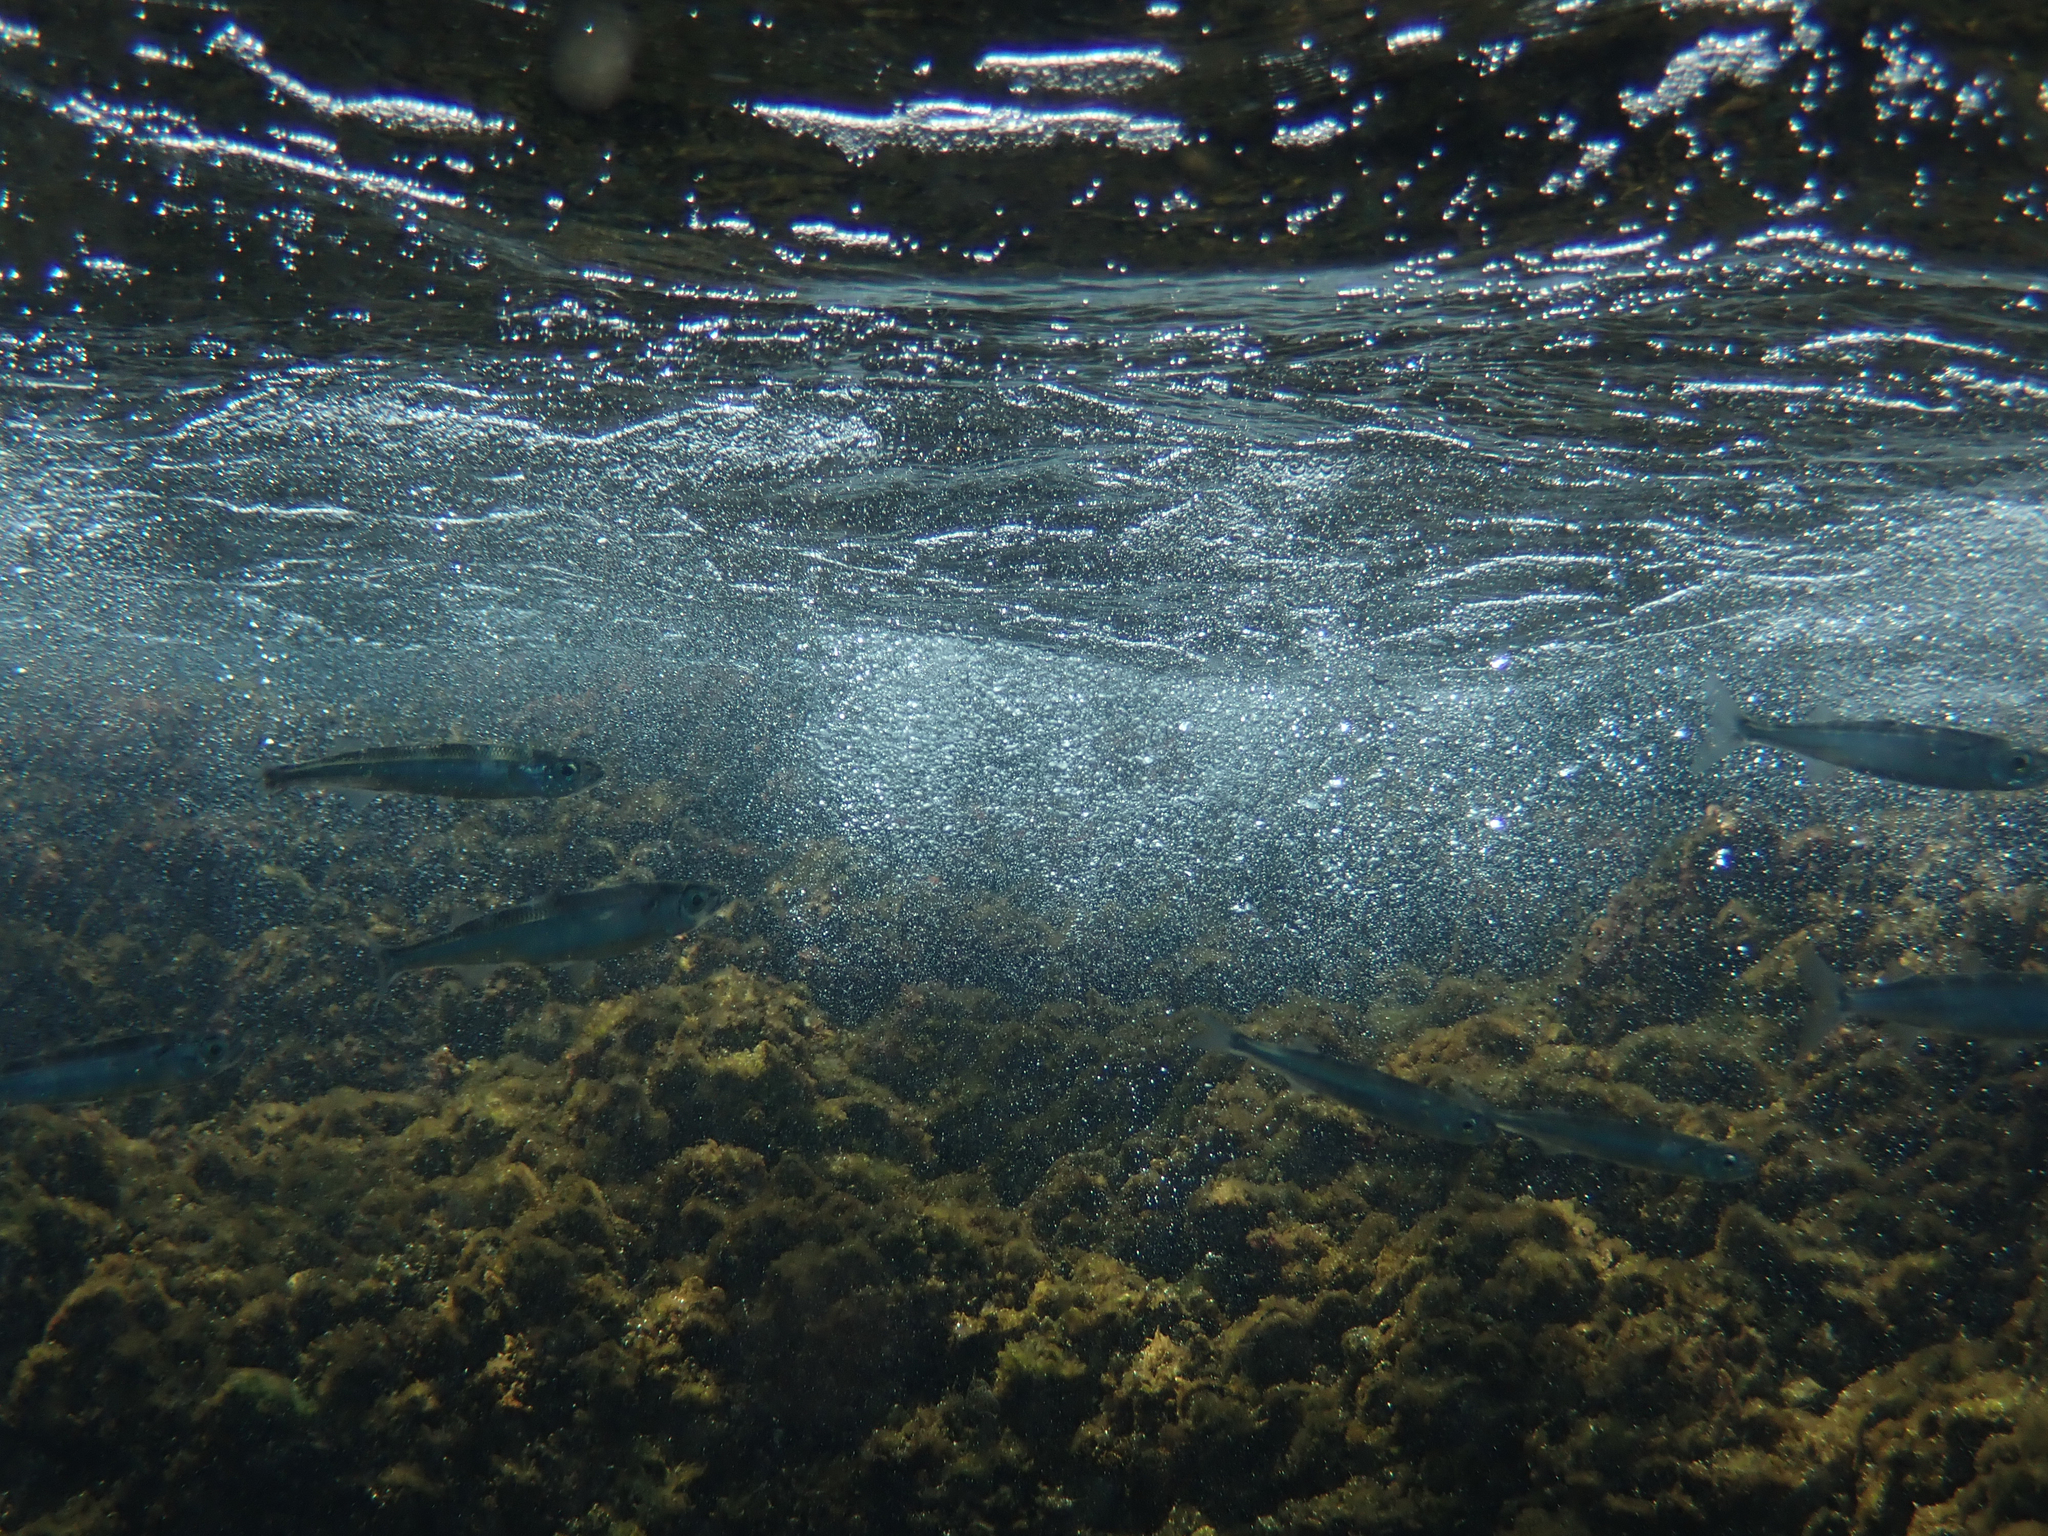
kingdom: Animalia
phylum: Chordata
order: Atheriniformes
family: Atherinidae
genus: Atherina
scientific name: Atherina hepsetus
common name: Mediterranean sand smelt
